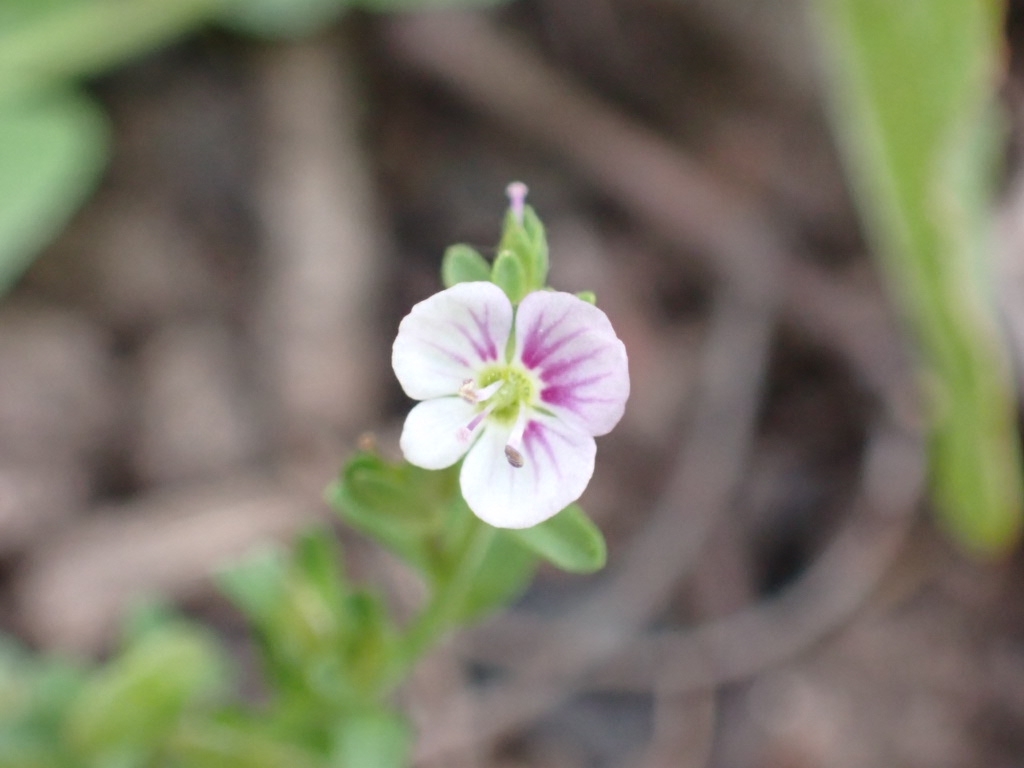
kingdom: Plantae
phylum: Tracheophyta
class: Magnoliopsida
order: Lamiales
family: Plantaginaceae
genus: Veronica
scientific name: Veronica serpyllifolia
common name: Thyme-leaved speedwell
